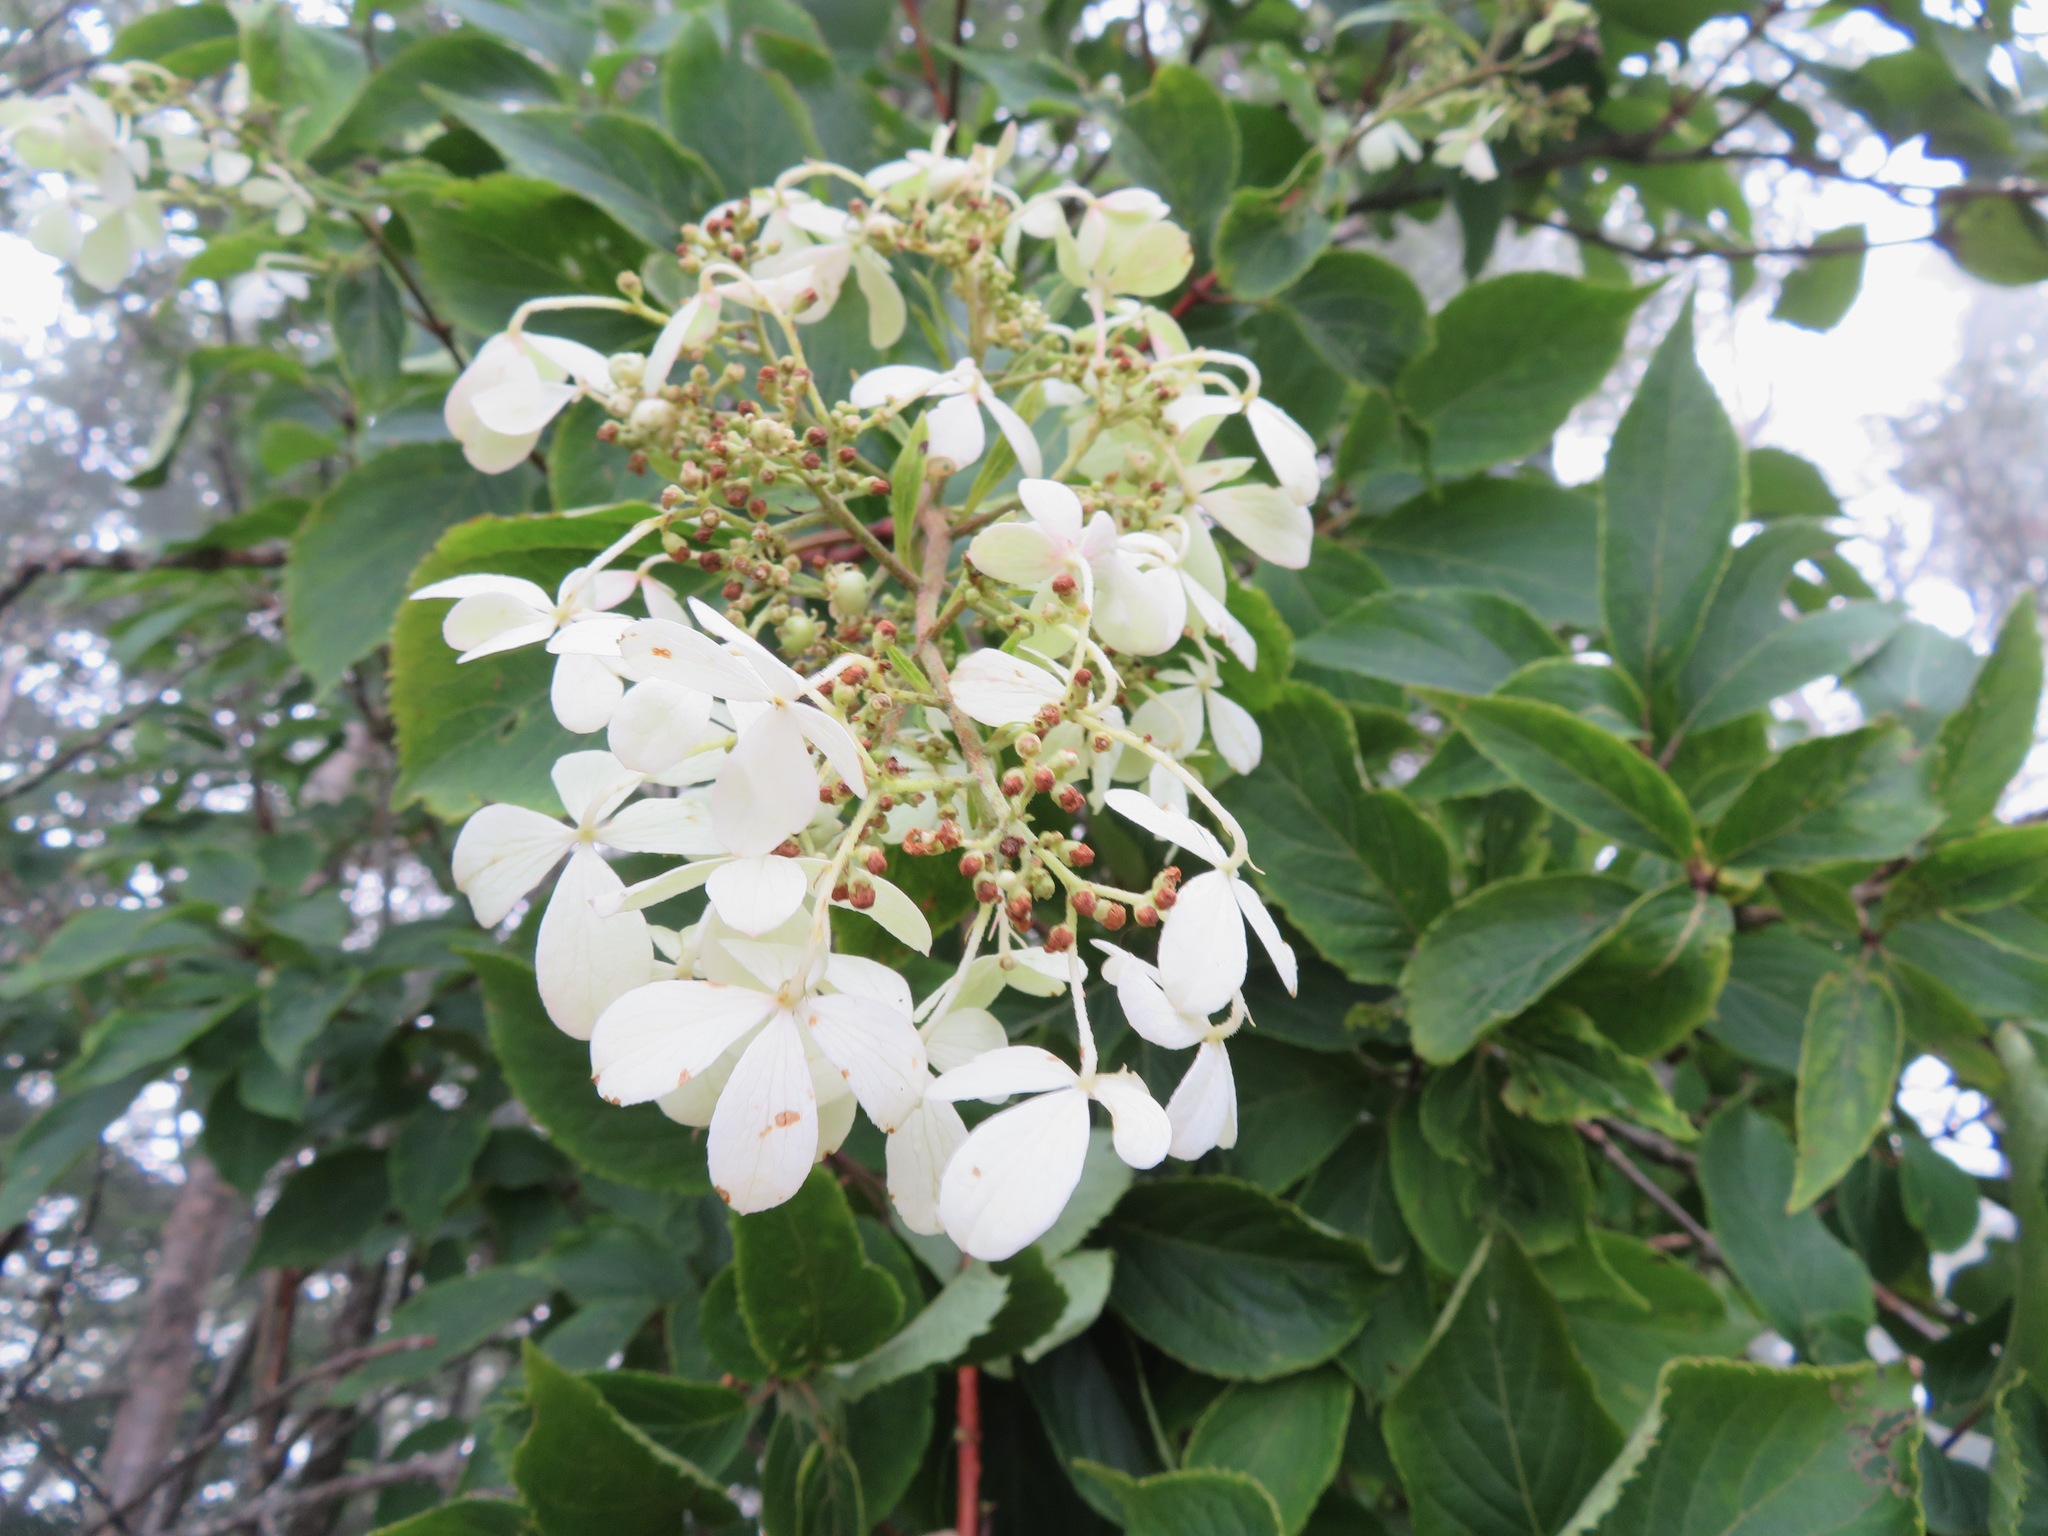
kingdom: Plantae
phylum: Tracheophyta
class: Magnoliopsida
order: Cornales
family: Hydrangeaceae
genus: Hydrangea
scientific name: Hydrangea paniculata
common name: Panicled hydrangea
